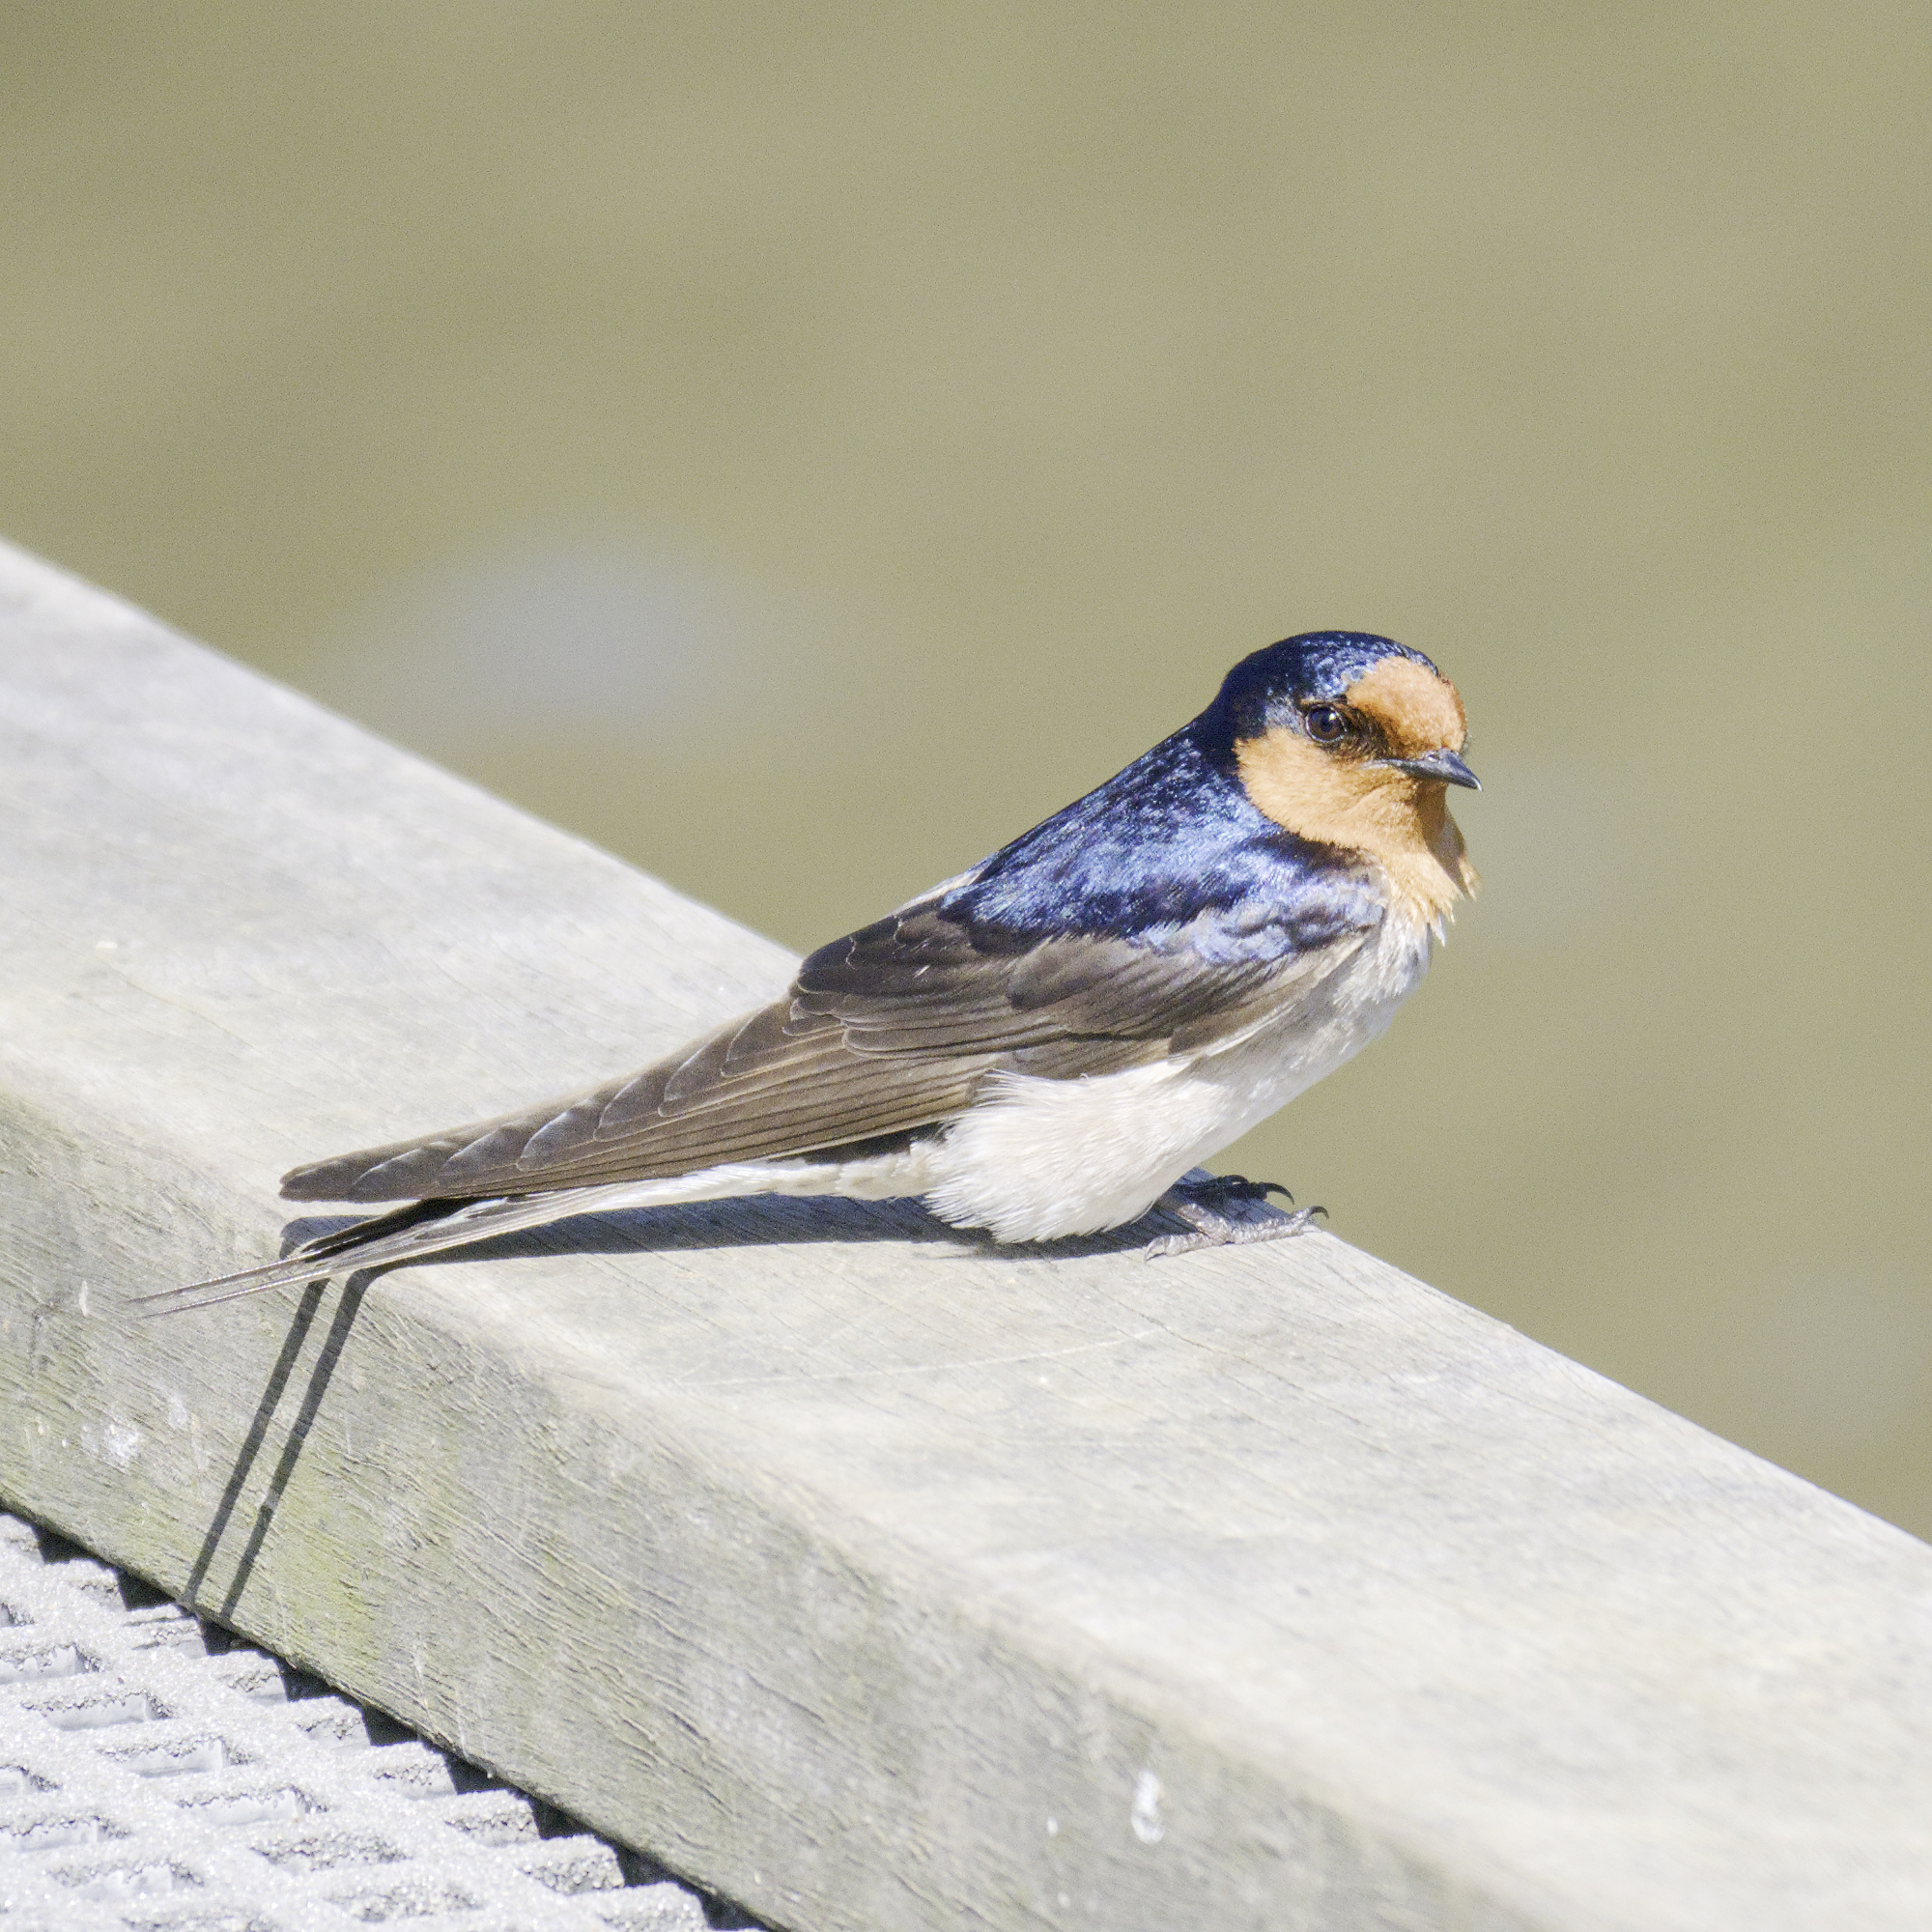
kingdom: Animalia
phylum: Chordata
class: Aves
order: Passeriformes
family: Hirundinidae
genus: Hirundo
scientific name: Hirundo neoxena
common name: Welcome swallow
